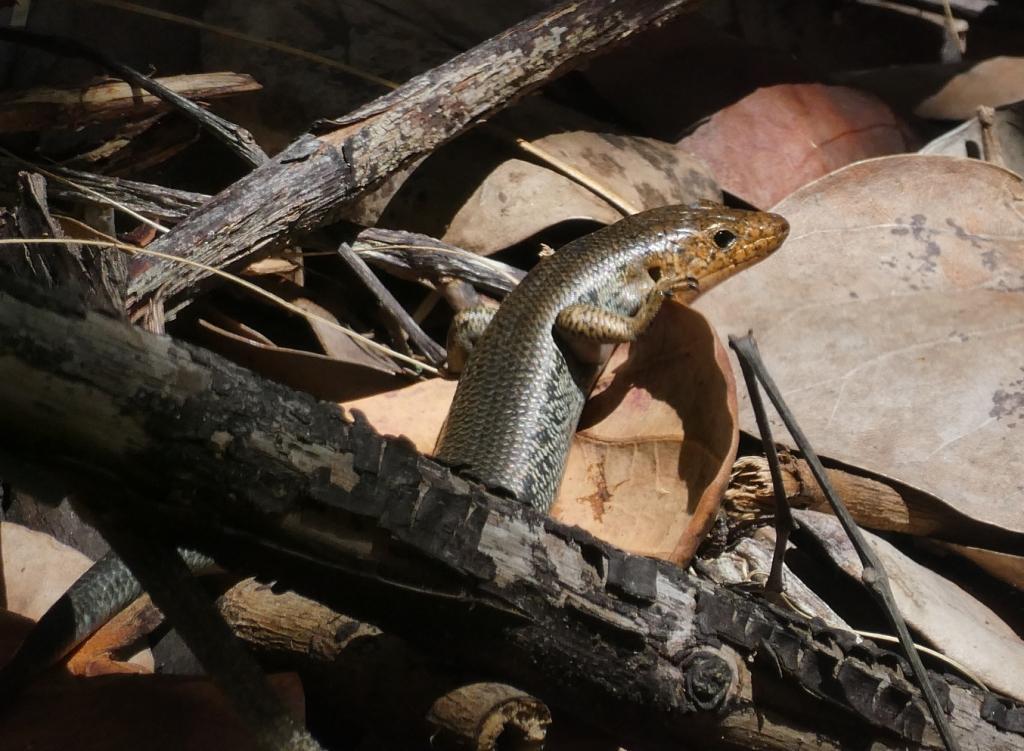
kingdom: Animalia
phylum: Chordata
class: Squamata
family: Scincidae
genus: Plestiodon
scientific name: Plestiodon longirostris
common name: Bermuda skink
